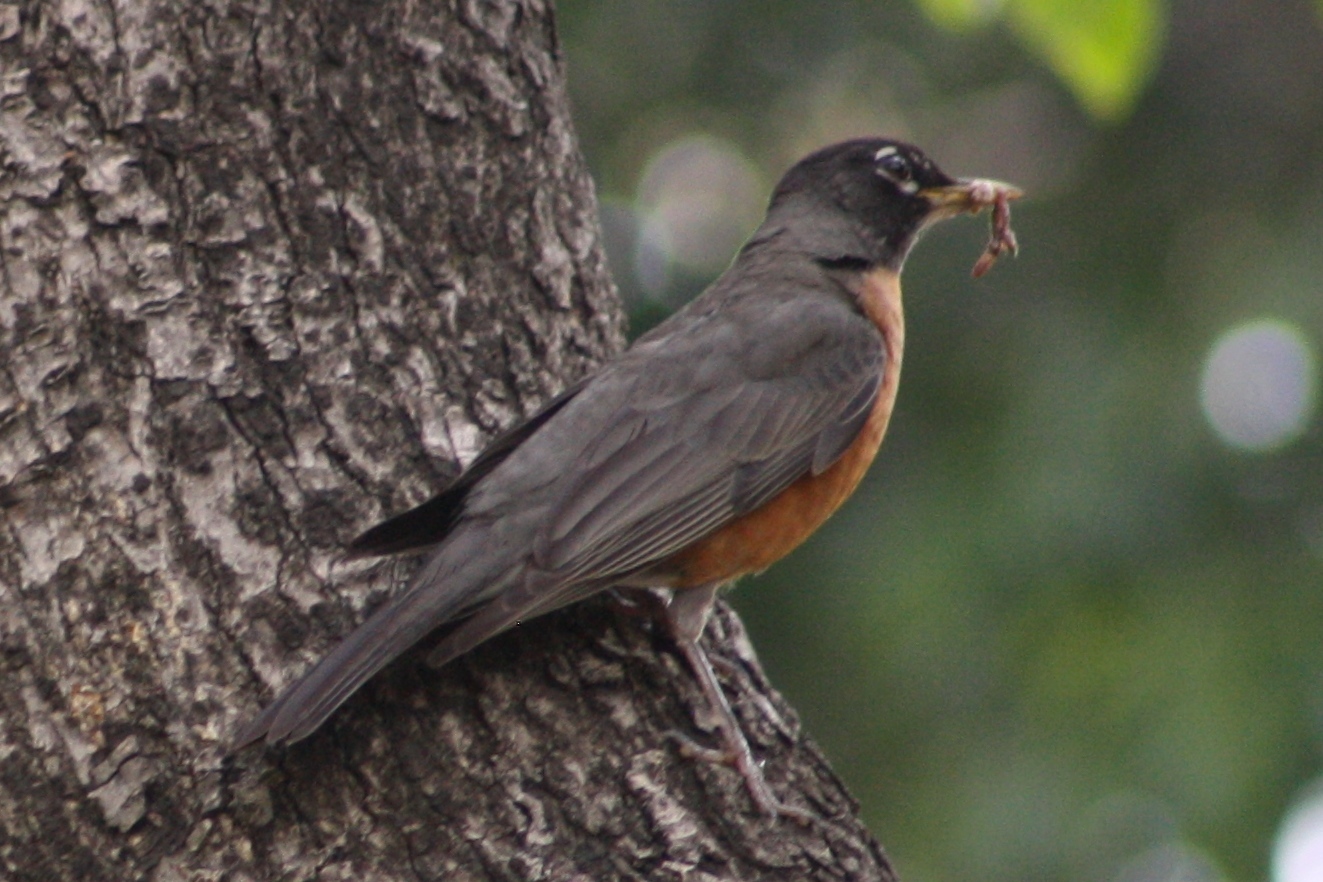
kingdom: Animalia
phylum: Chordata
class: Aves
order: Passeriformes
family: Turdidae
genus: Turdus
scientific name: Turdus migratorius
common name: American robin
